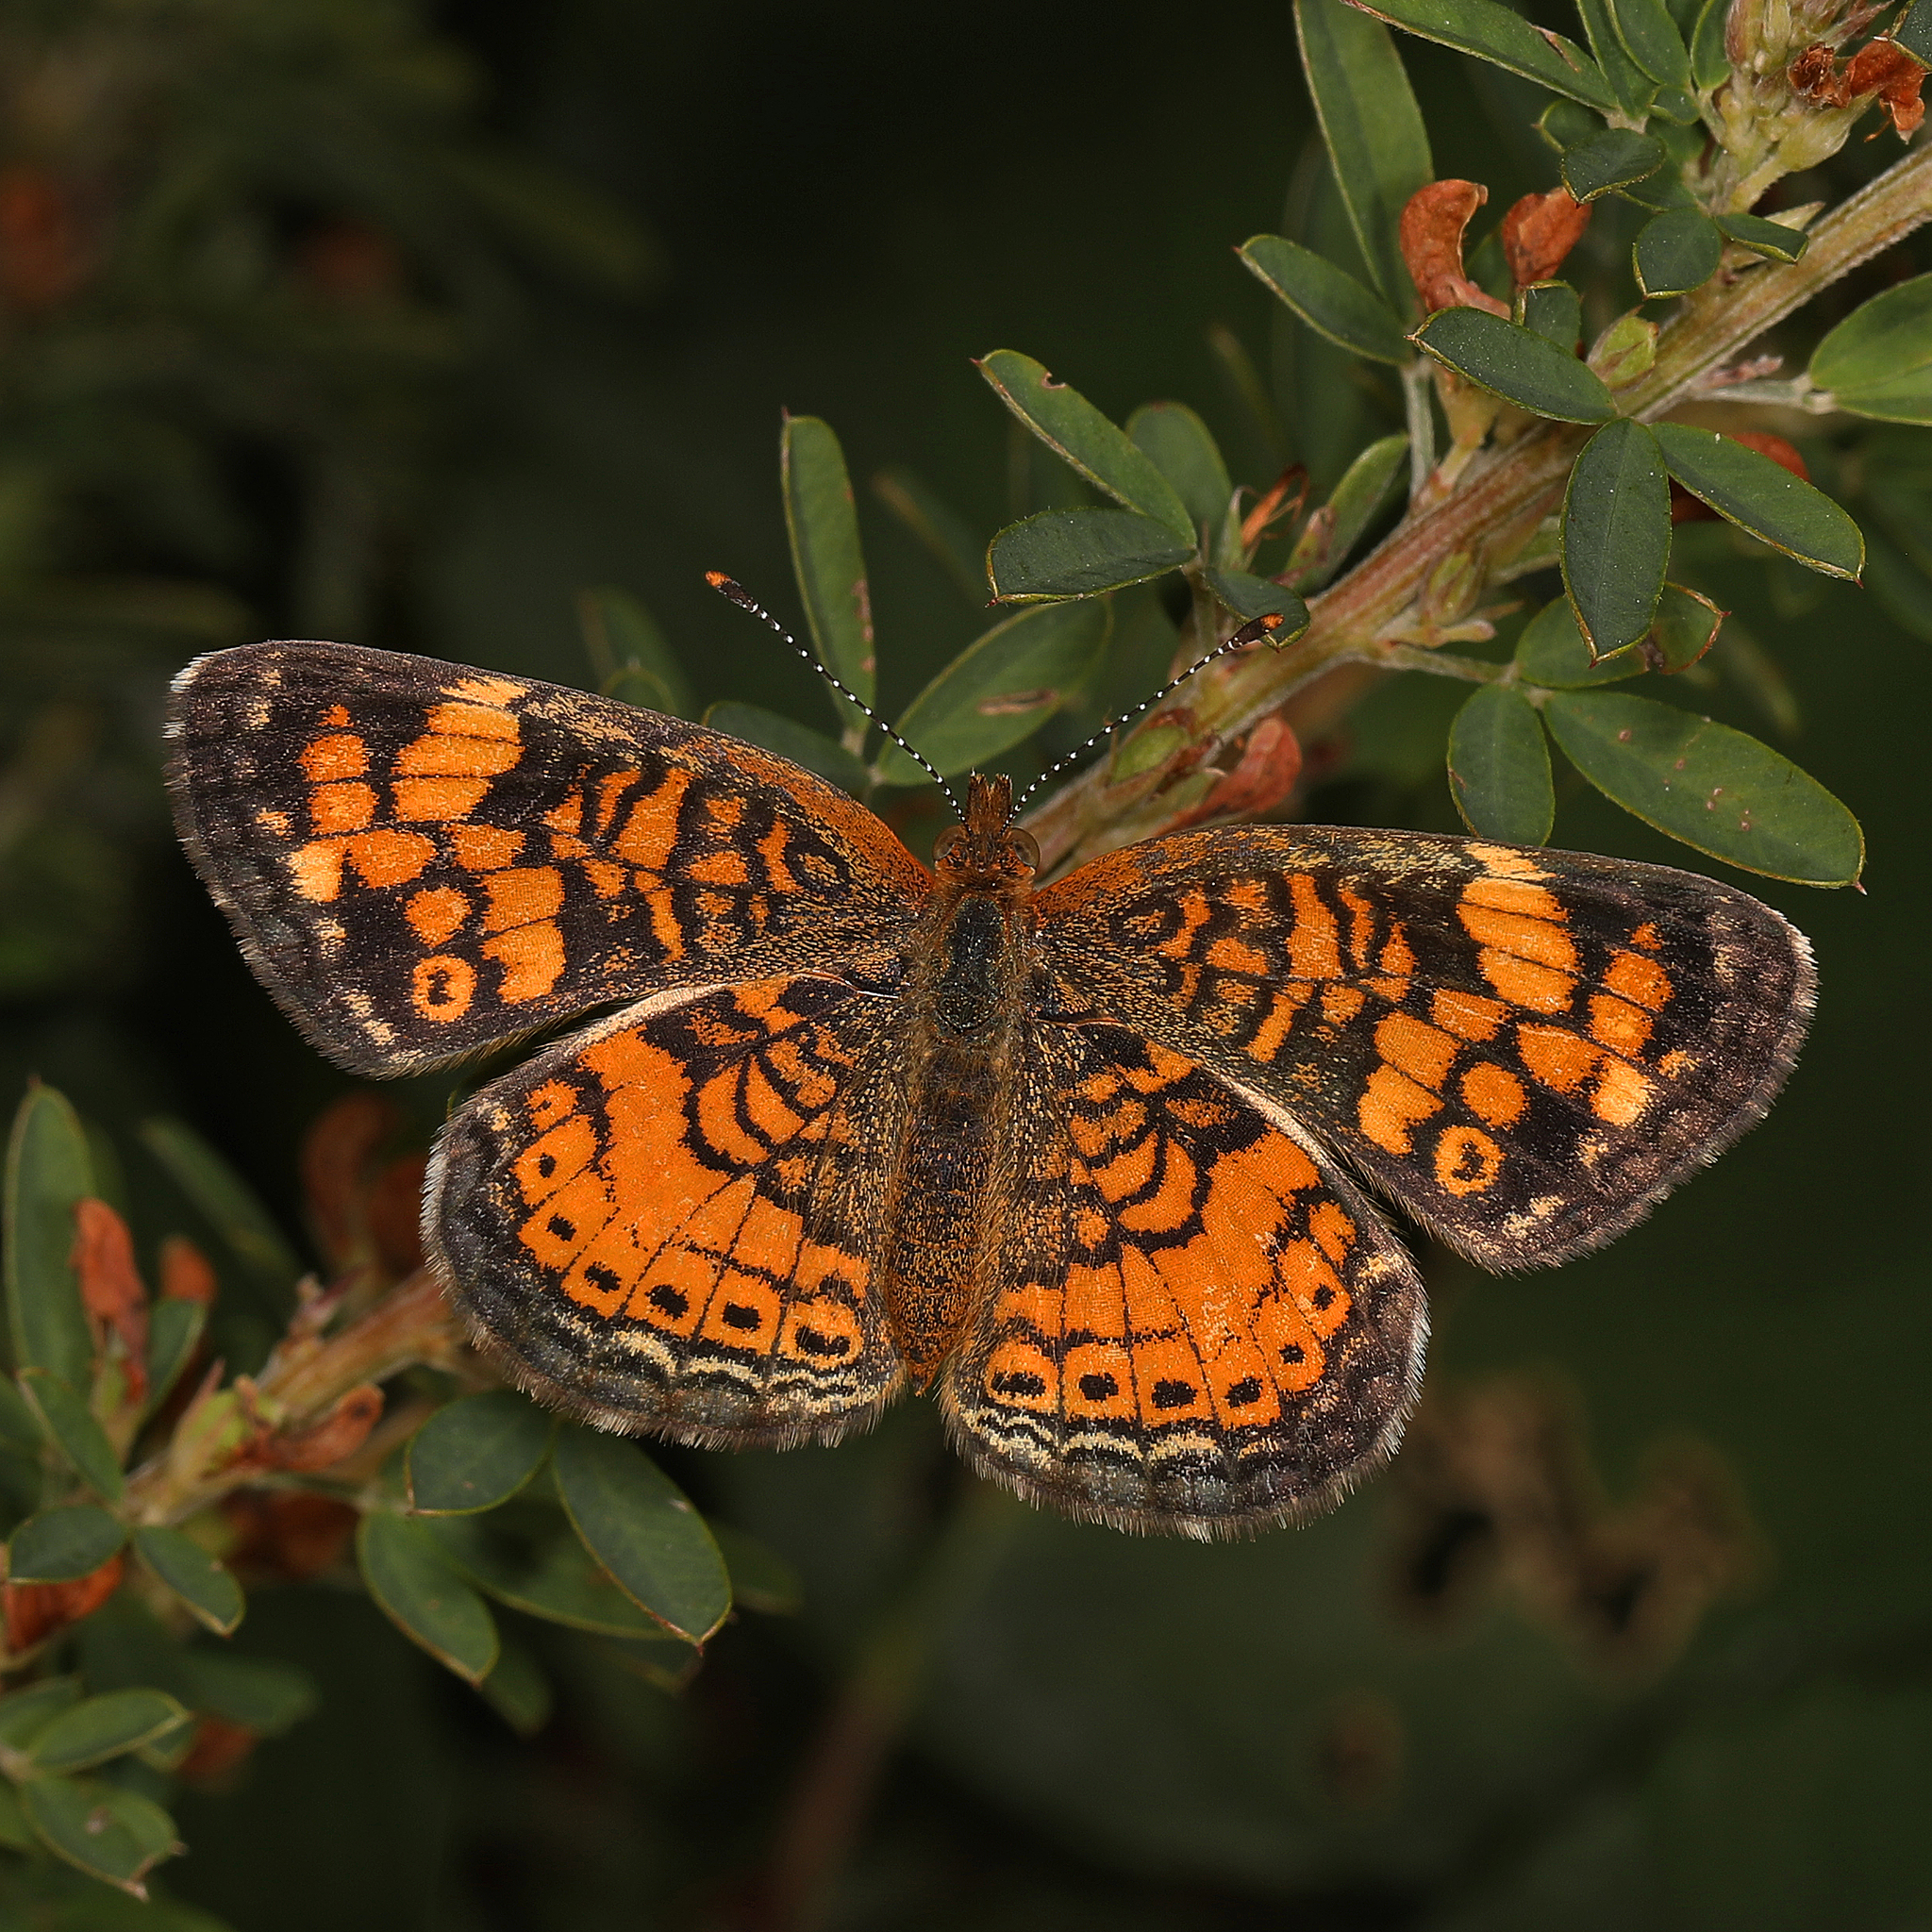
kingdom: Animalia
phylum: Arthropoda
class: Insecta
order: Lepidoptera
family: Nymphalidae
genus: Phyciodes
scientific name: Phyciodes tharos
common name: Pearl crescent
